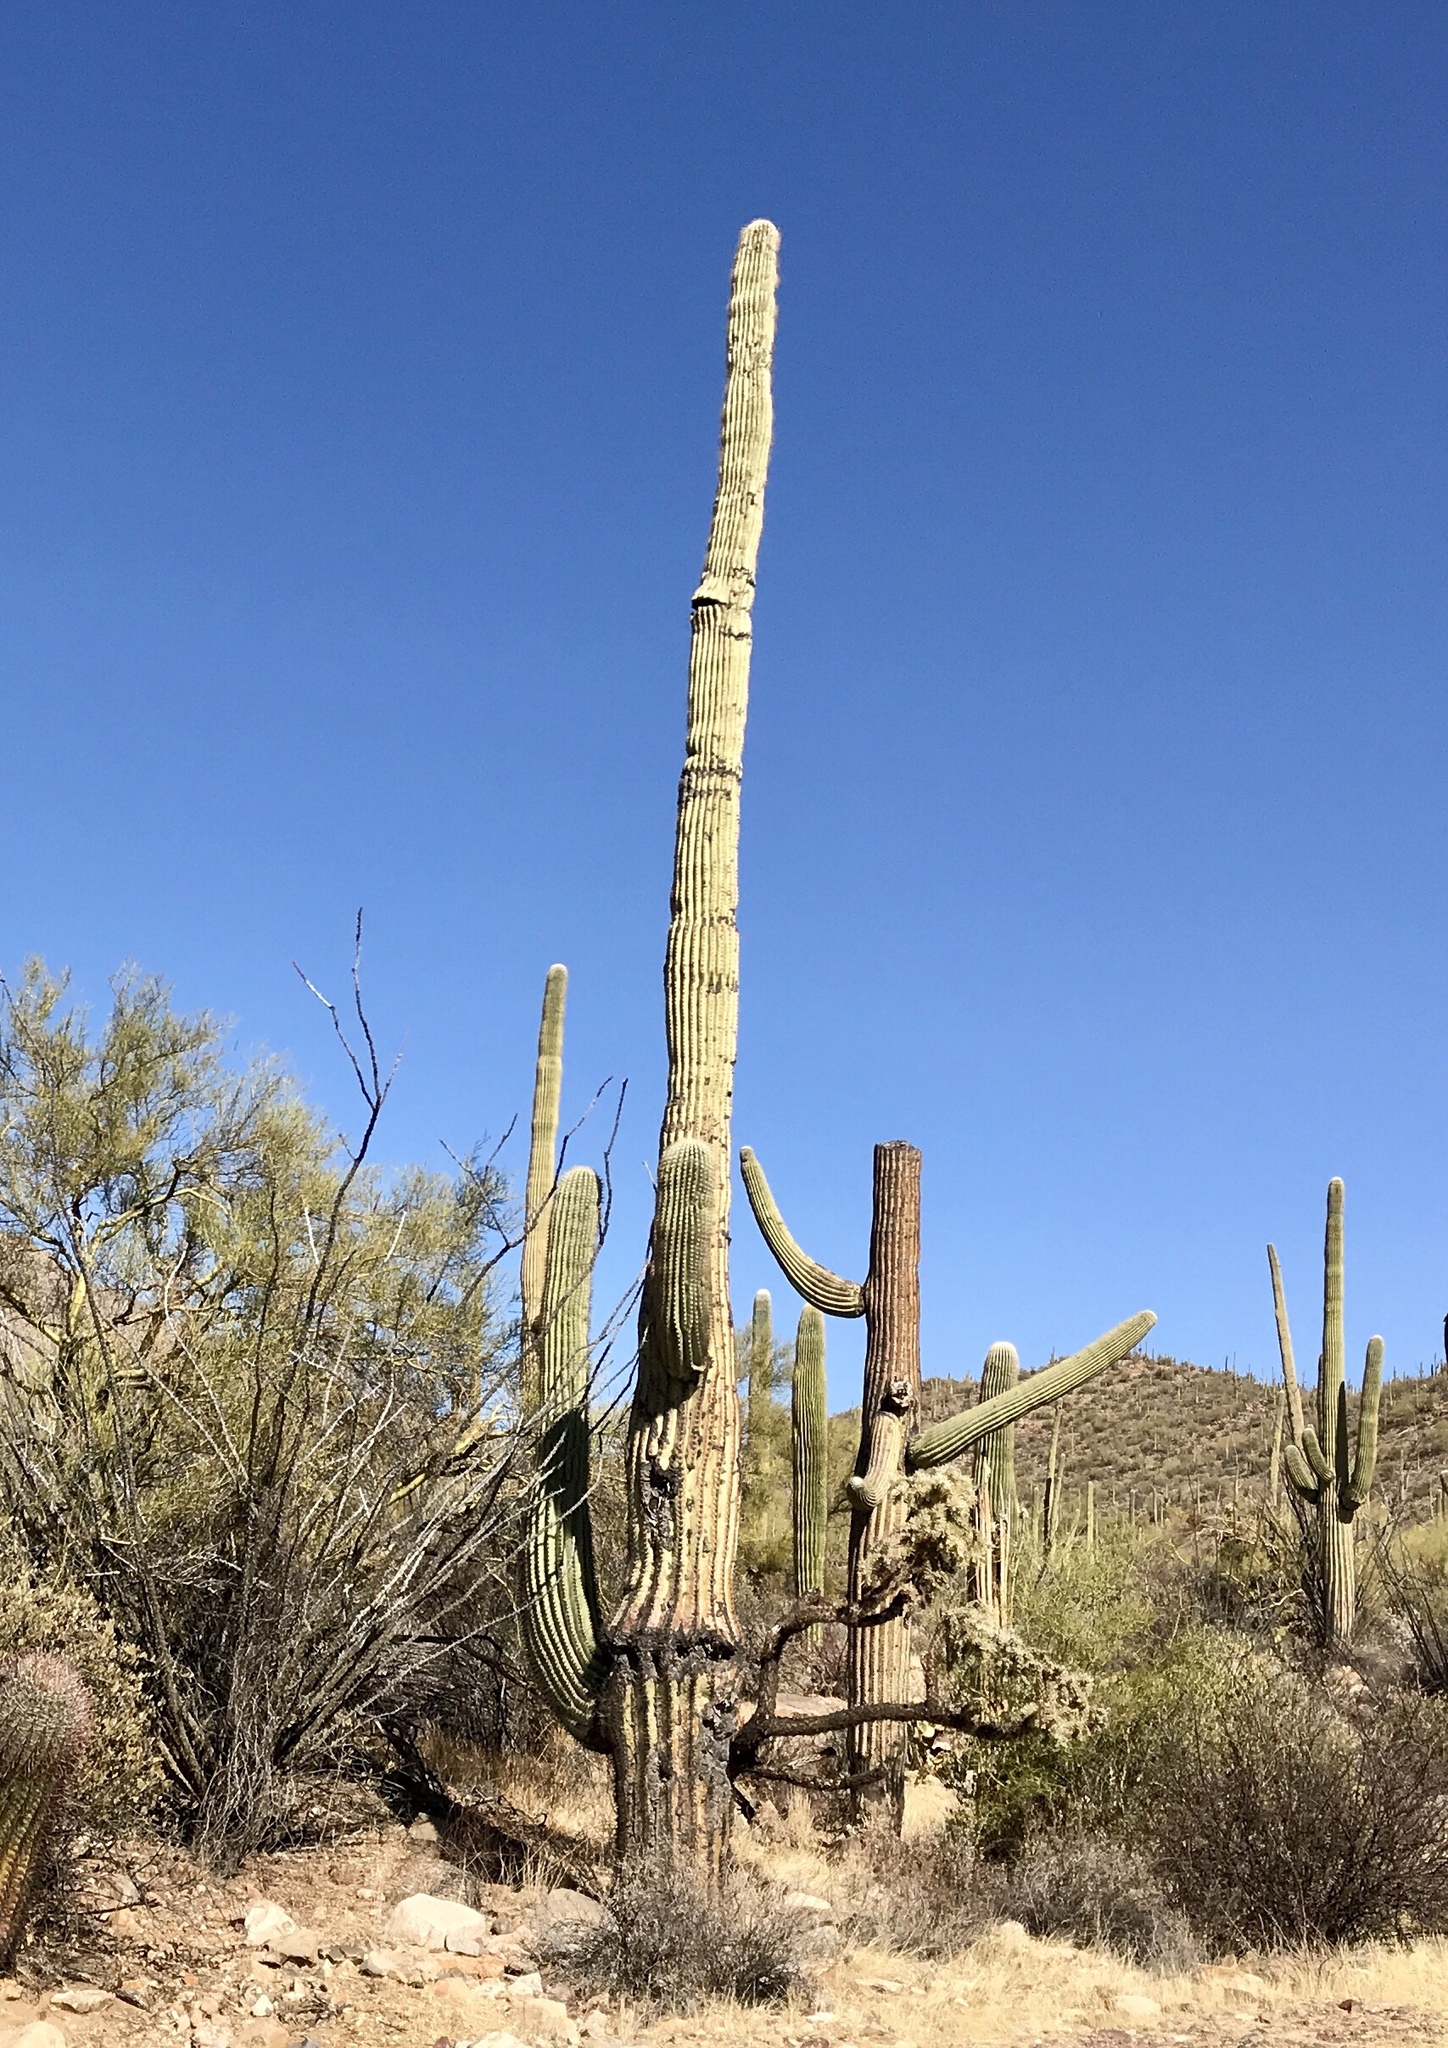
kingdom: Plantae
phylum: Tracheophyta
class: Magnoliopsida
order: Caryophyllales
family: Cactaceae
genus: Carnegiea
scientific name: Carnegiea gigantea
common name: Saguaro
